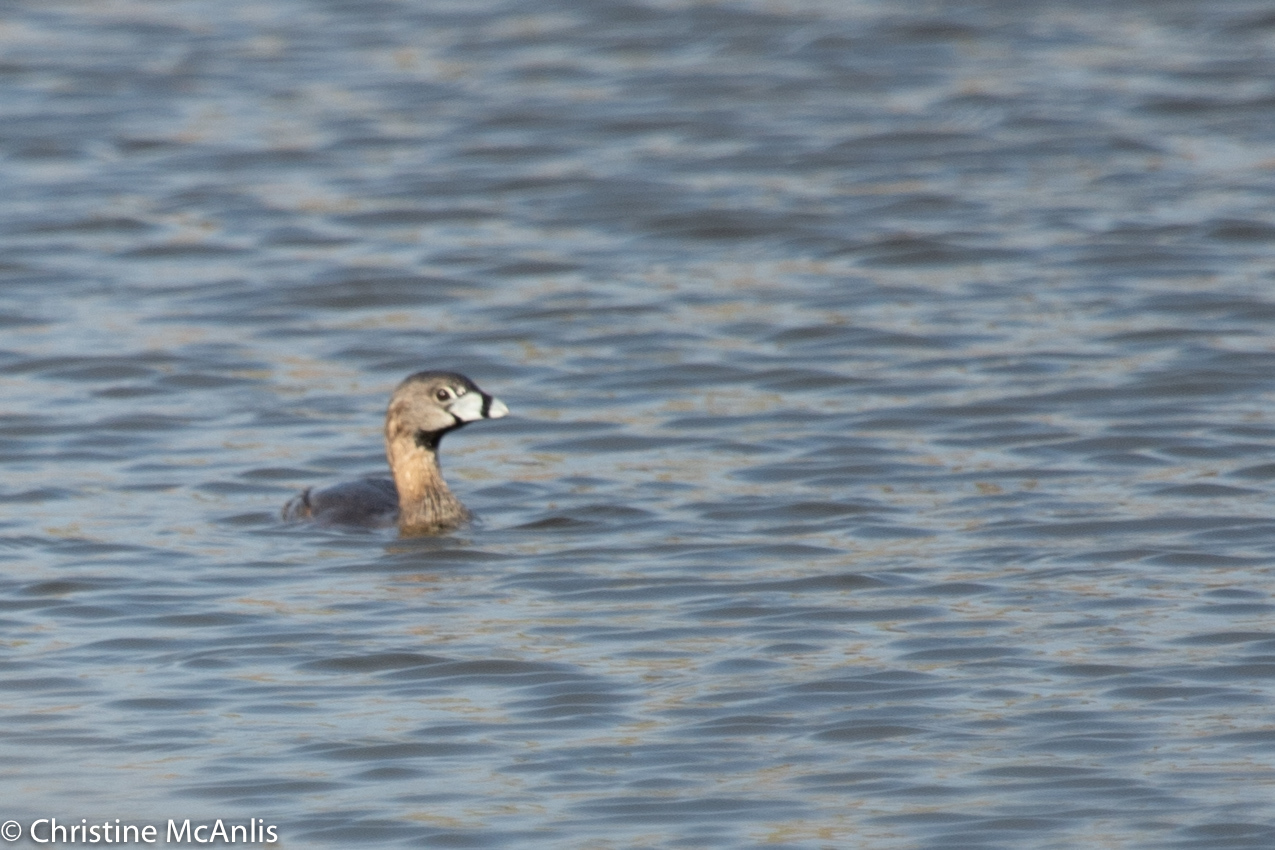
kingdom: Animalia
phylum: Chordata
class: Aves
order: Podicipediformes
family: Podicipedidae
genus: Podilymbus
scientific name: Podilymbus podiceps
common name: Pied-billed grebe
